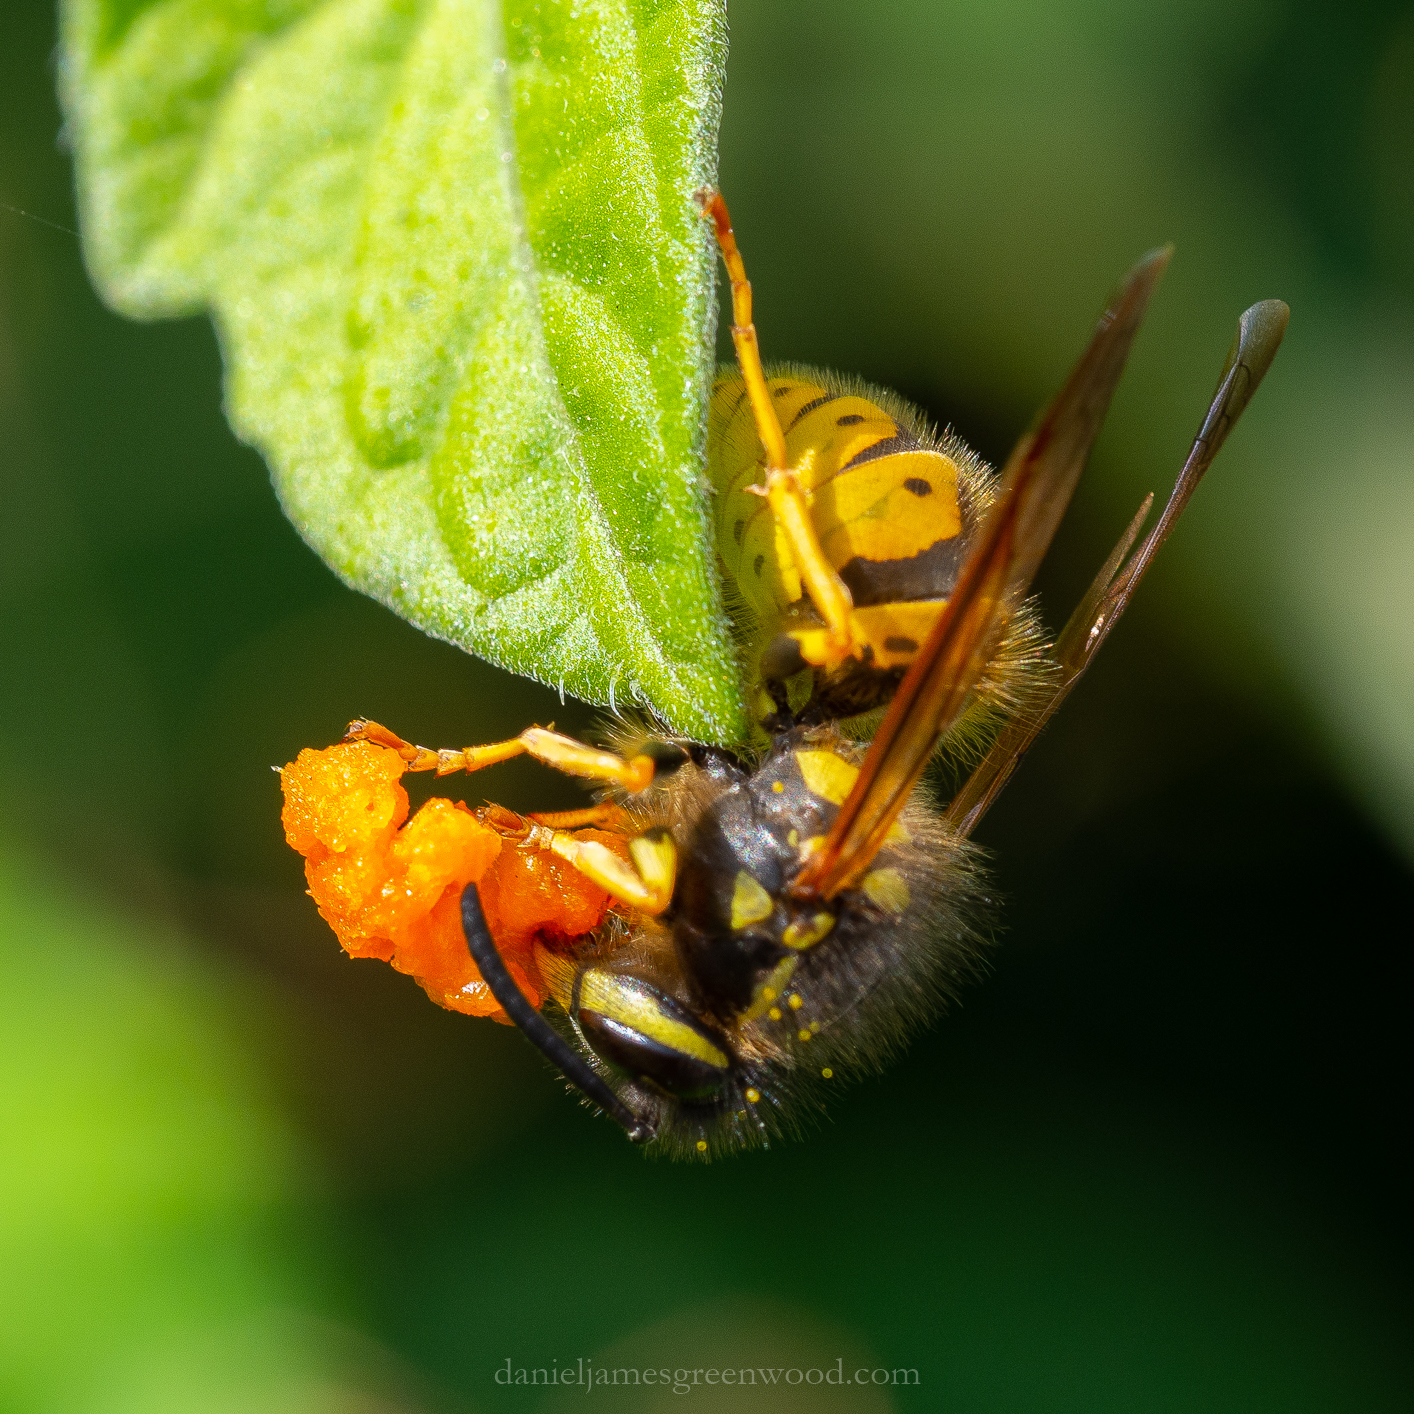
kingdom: Animalia
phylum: Arthropoda
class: Insecta
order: Hymenoptera
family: Vespidae
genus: Vespula
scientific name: Vespula germanica
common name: German wasp
